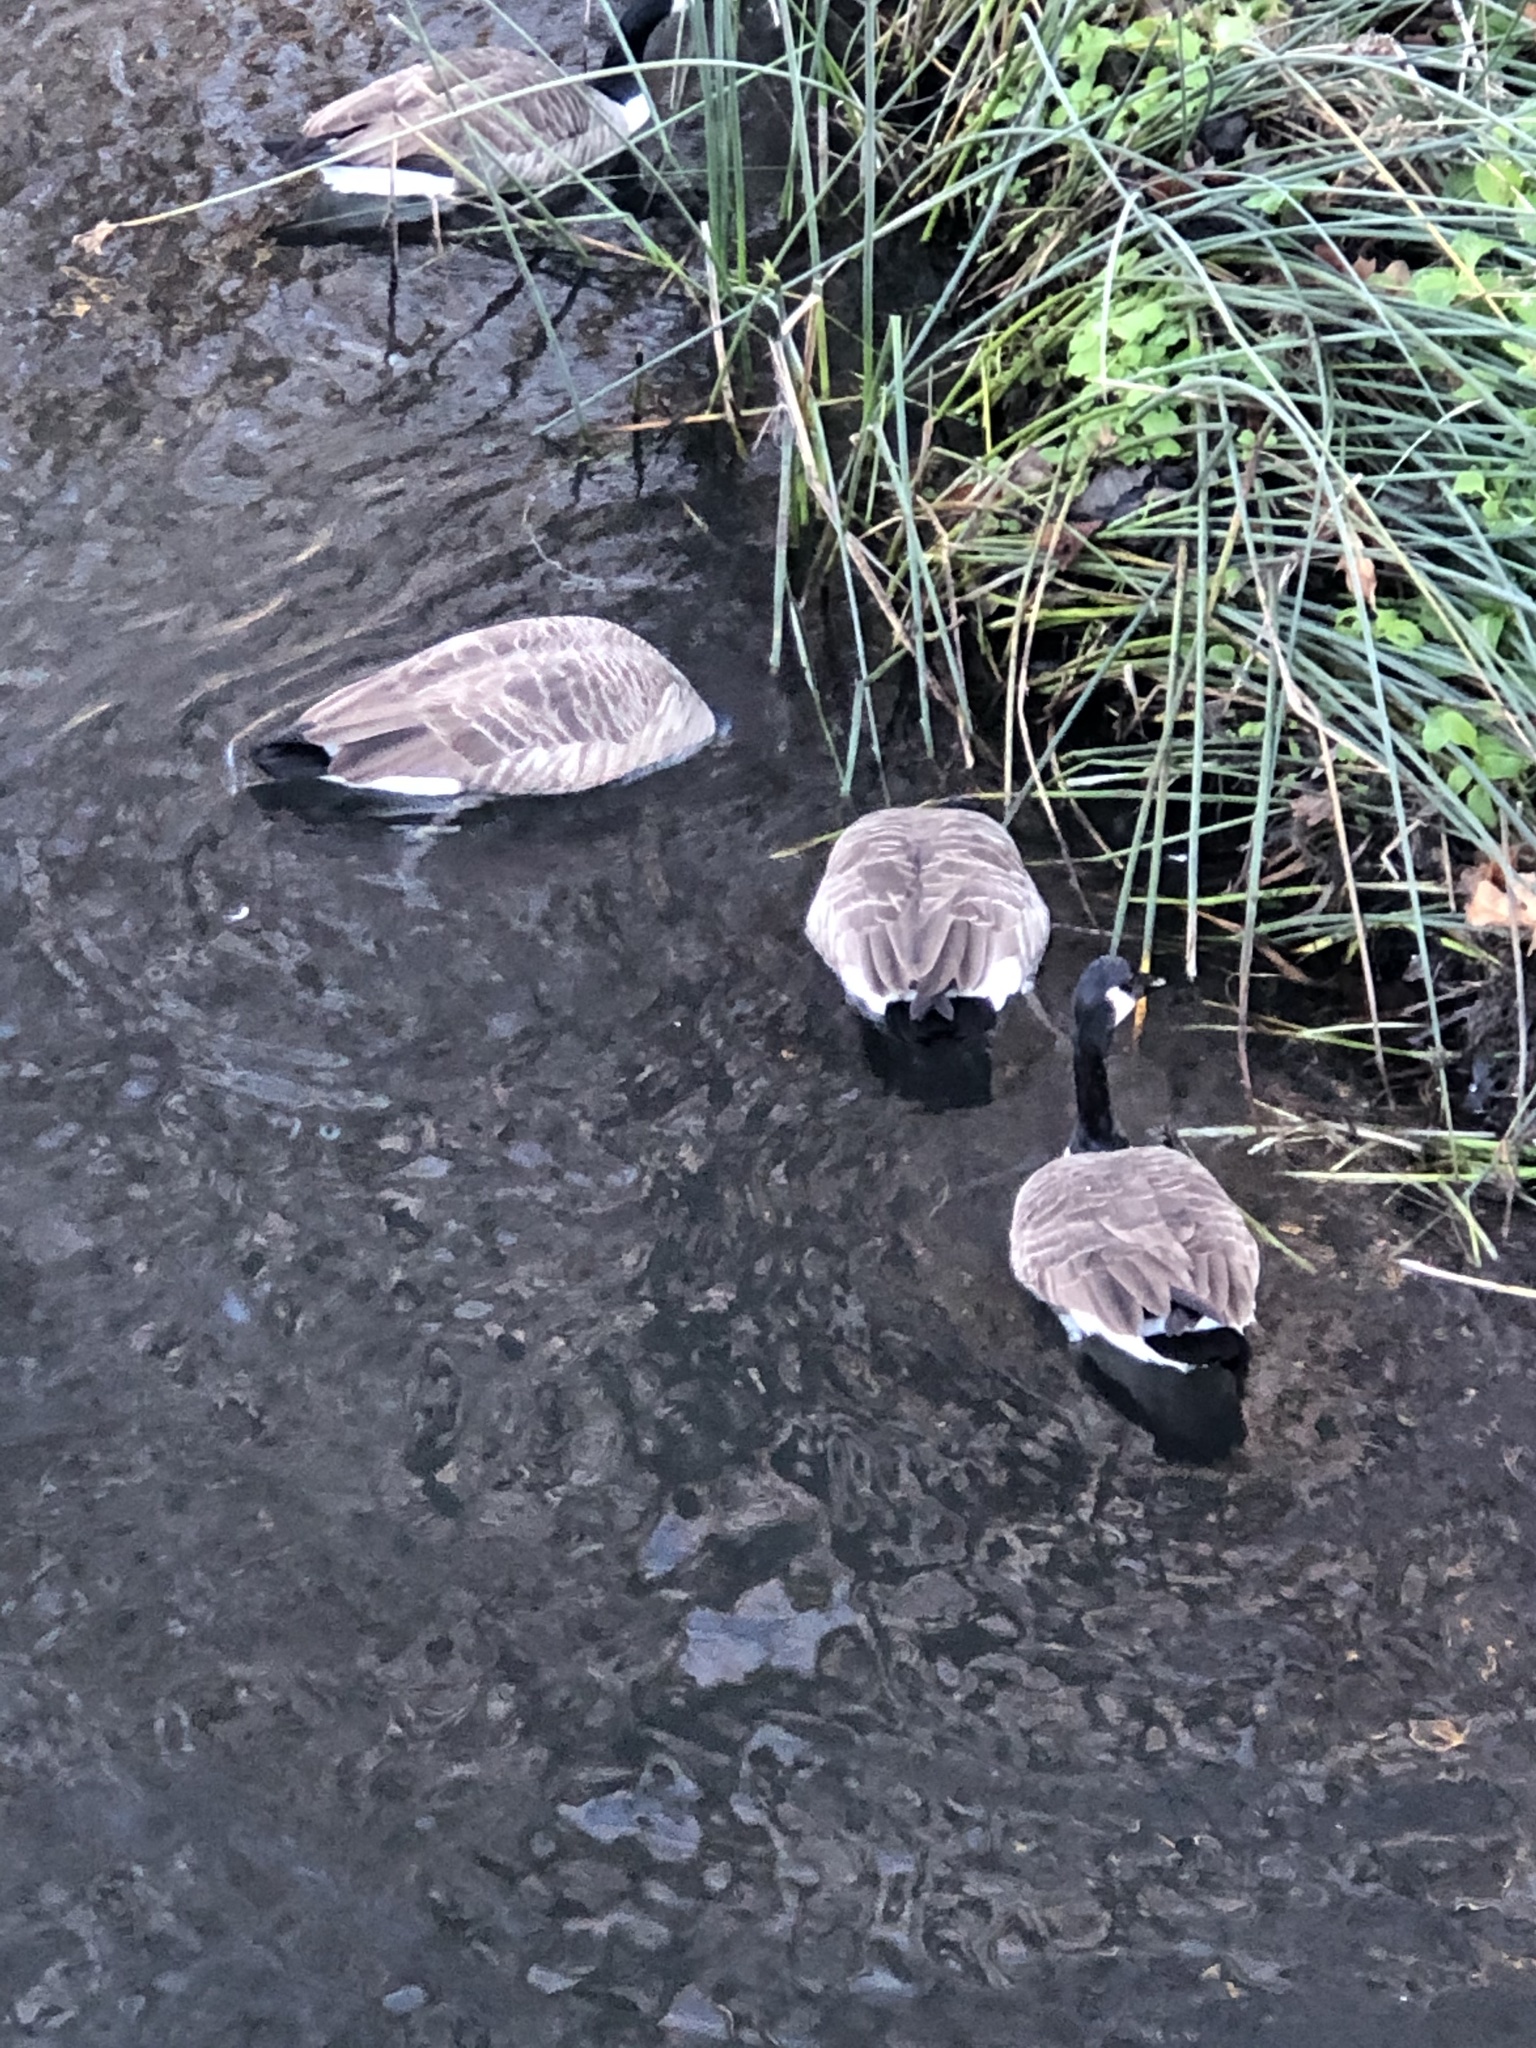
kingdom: Animalia
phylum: Chordata
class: Aves
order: Anseriformes
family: Anatidae
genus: Branta
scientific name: Branta canadensis
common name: Canada goose
